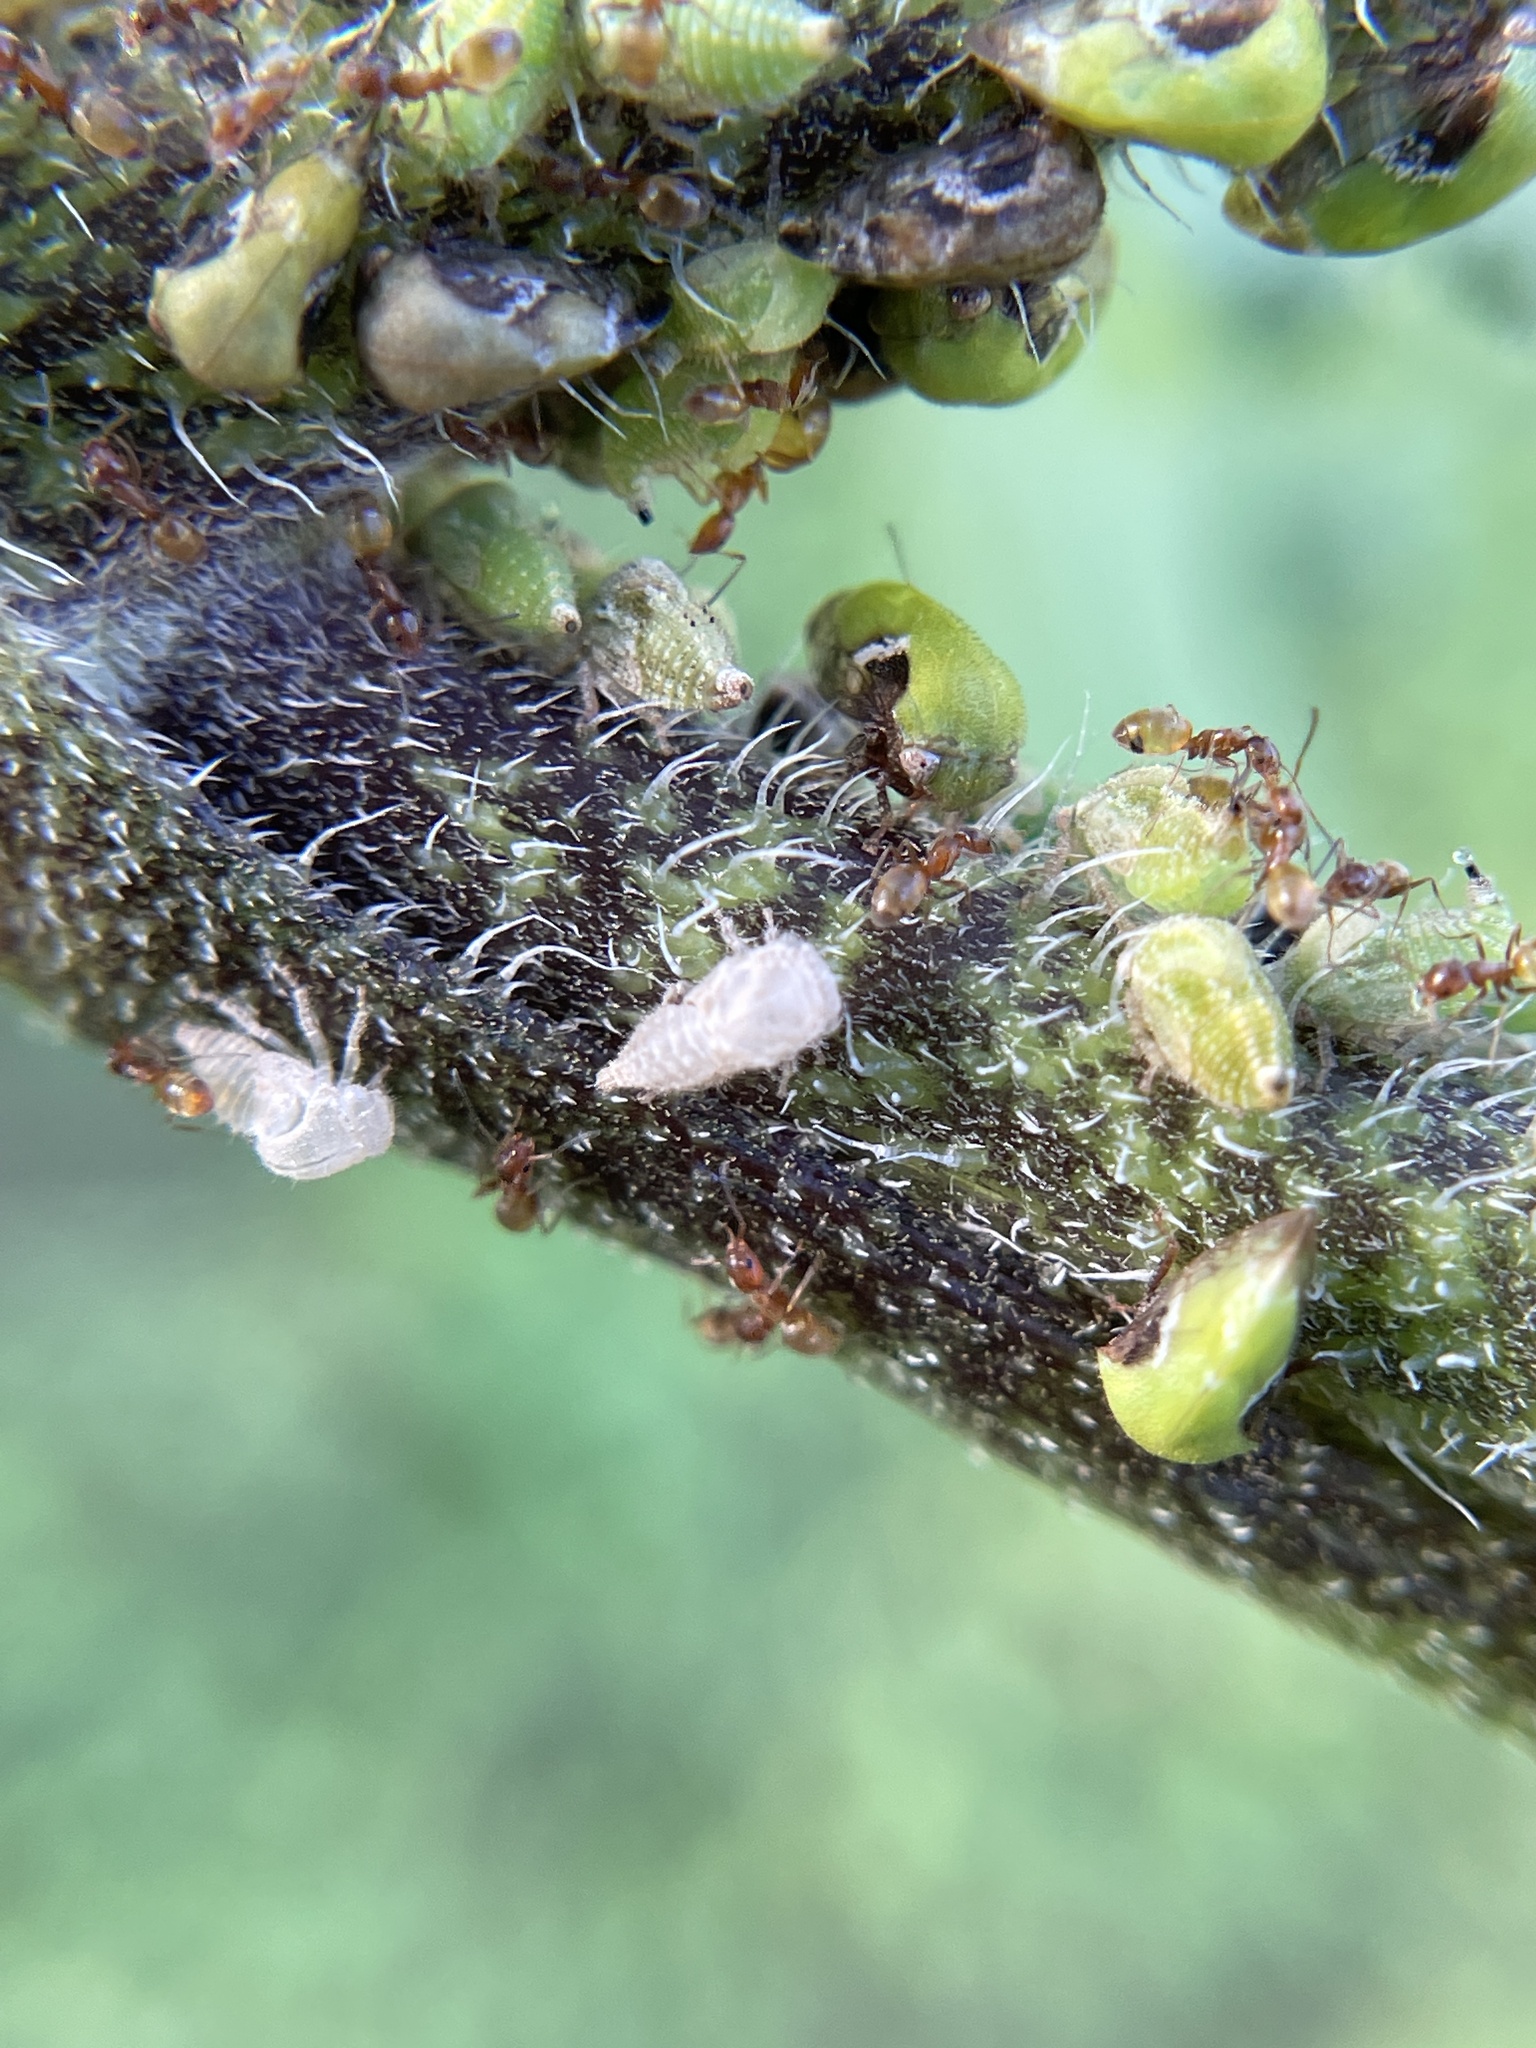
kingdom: Animalia
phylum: Arthropoda
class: Insecta
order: Hemiptera
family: Membracidae
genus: Vanduzea
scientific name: Vanduzea segmentata
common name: Membracid bug
